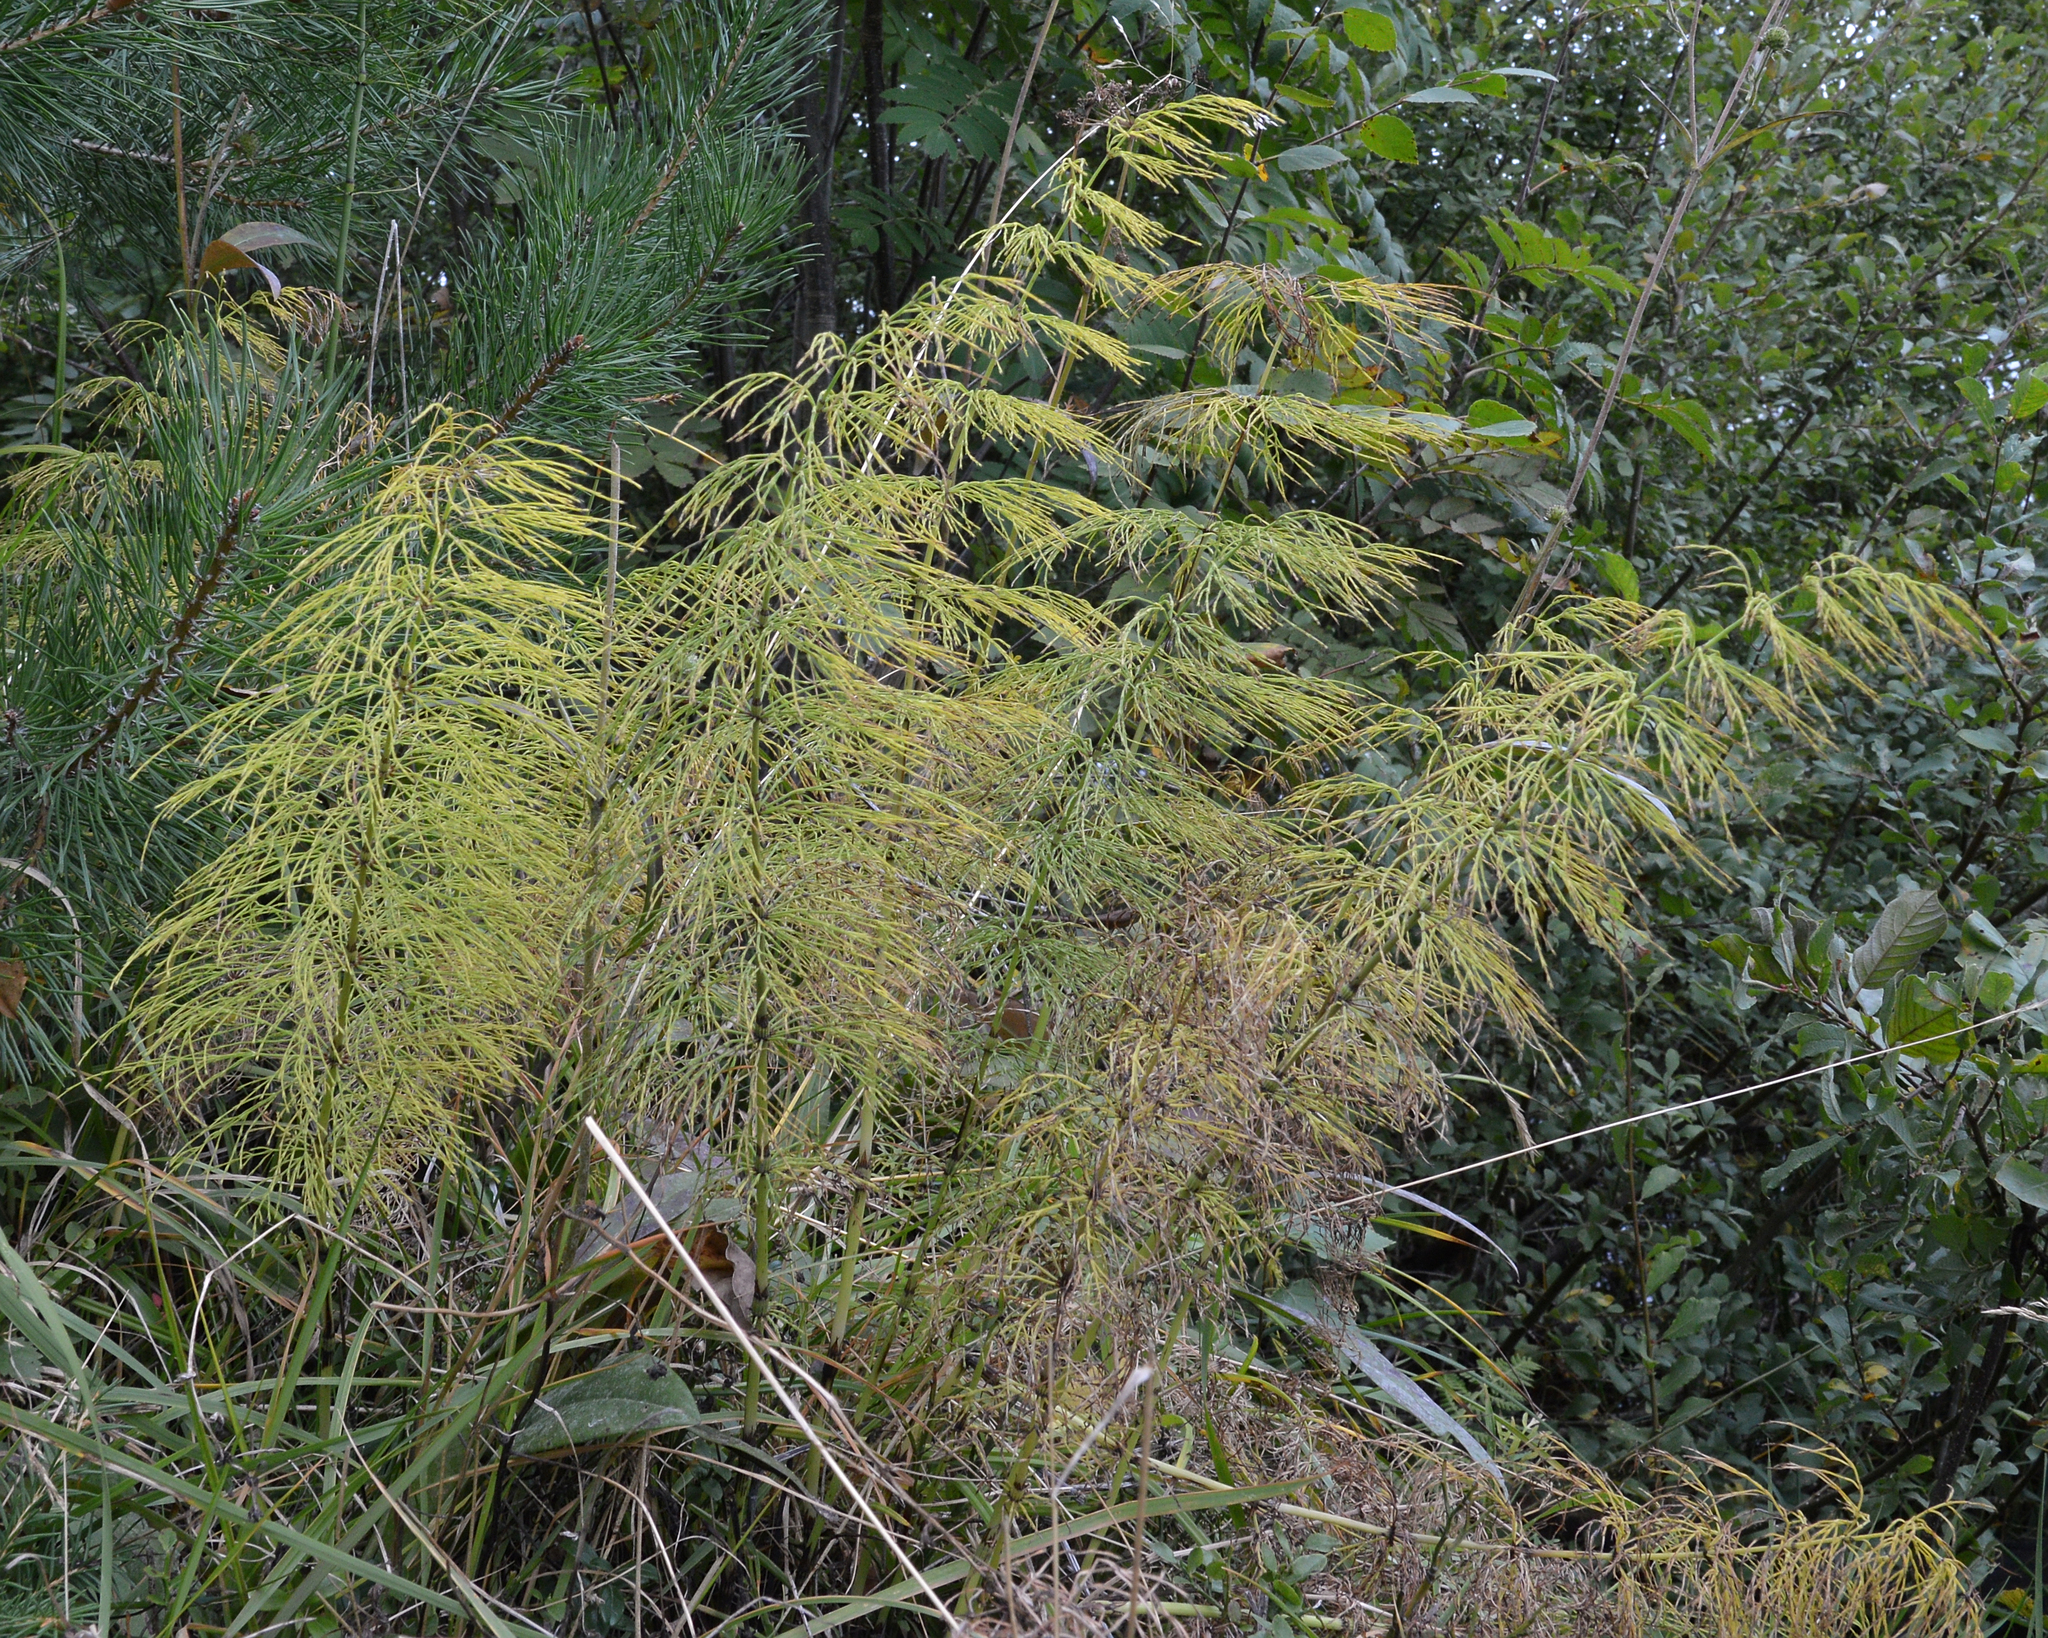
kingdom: Plantae
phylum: Tracheophyta
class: Polypodiopsida
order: Equisetales
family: Equisetaceae
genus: Equisetum
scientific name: Equisetum sylvaticum
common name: Wood horsetail
